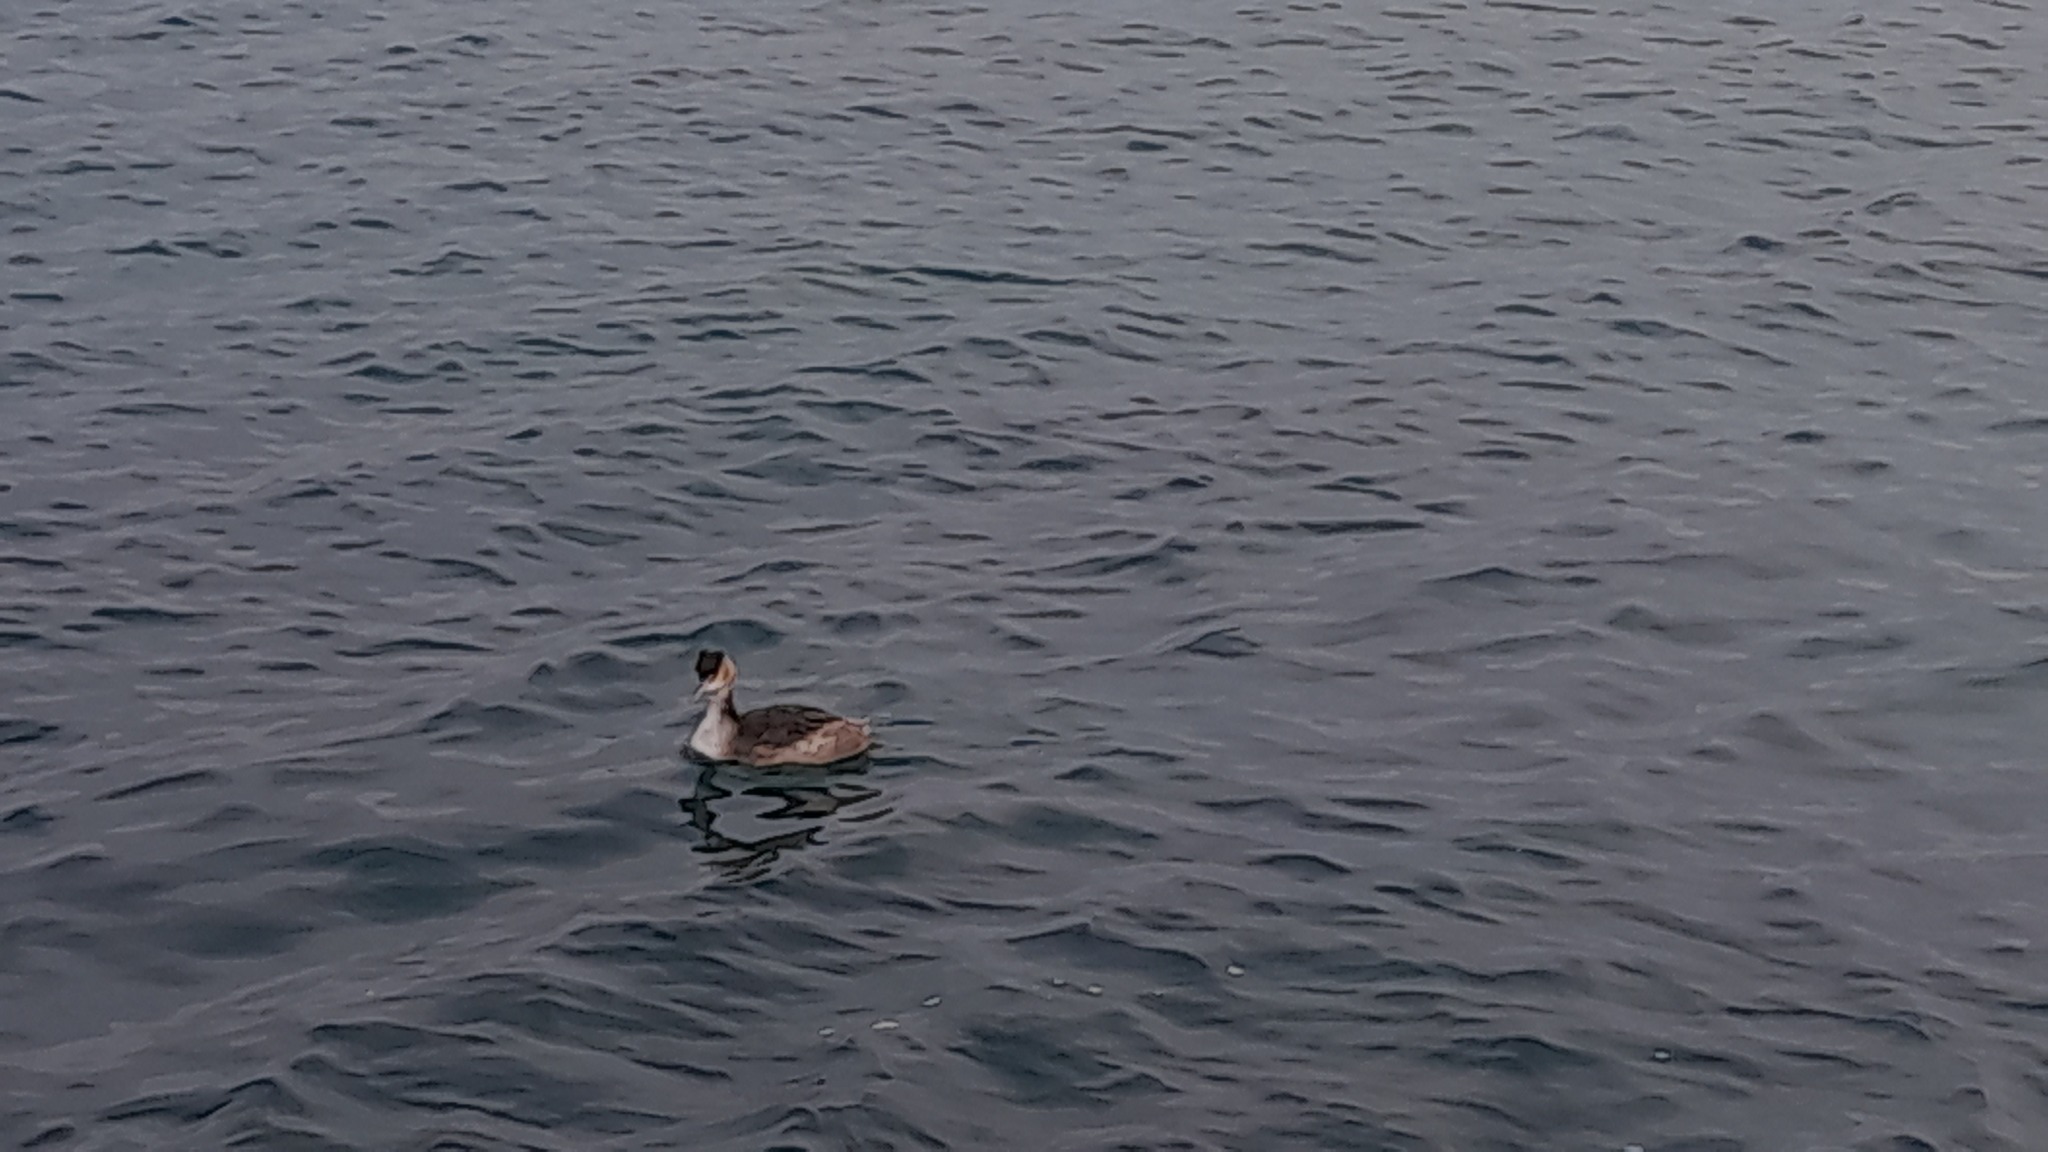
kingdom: Animalia
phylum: Chordata
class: Aves
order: Podicipediformes
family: Podicipedidae
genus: Podiceps
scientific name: Podiceps cristatus
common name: Great crested grebe
